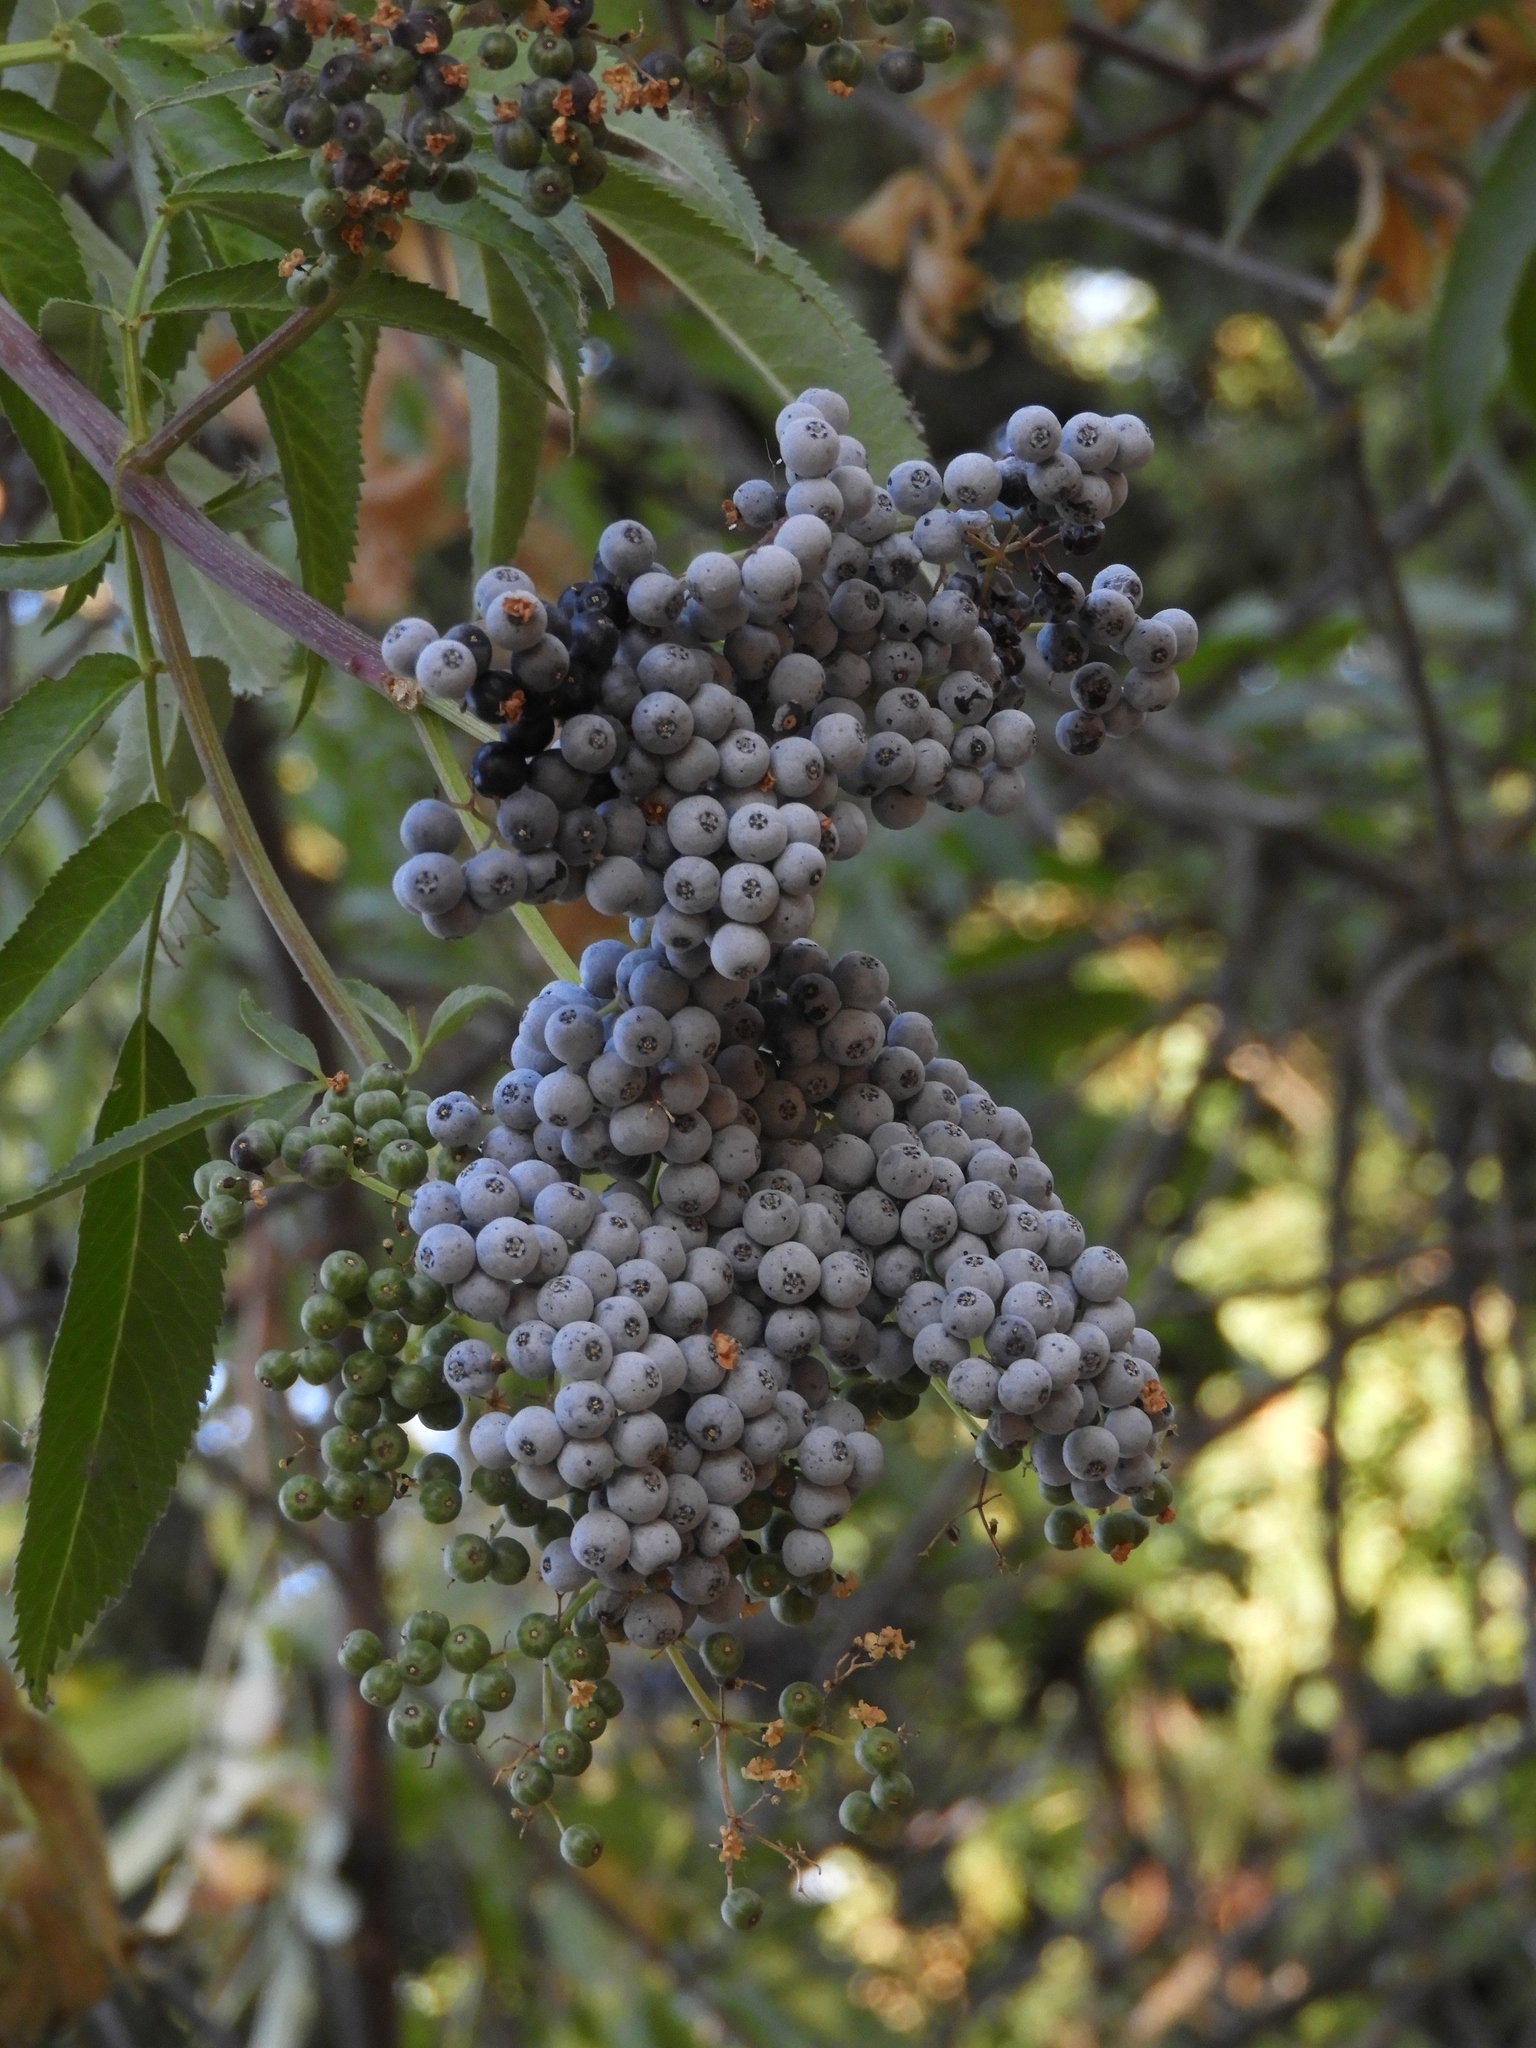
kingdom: Plantae
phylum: Tracheophyta
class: Magnoliopsida
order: Dipsacales
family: Viburnaceae
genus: Sambucus
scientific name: Sambucus cerulea
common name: Blue elder
